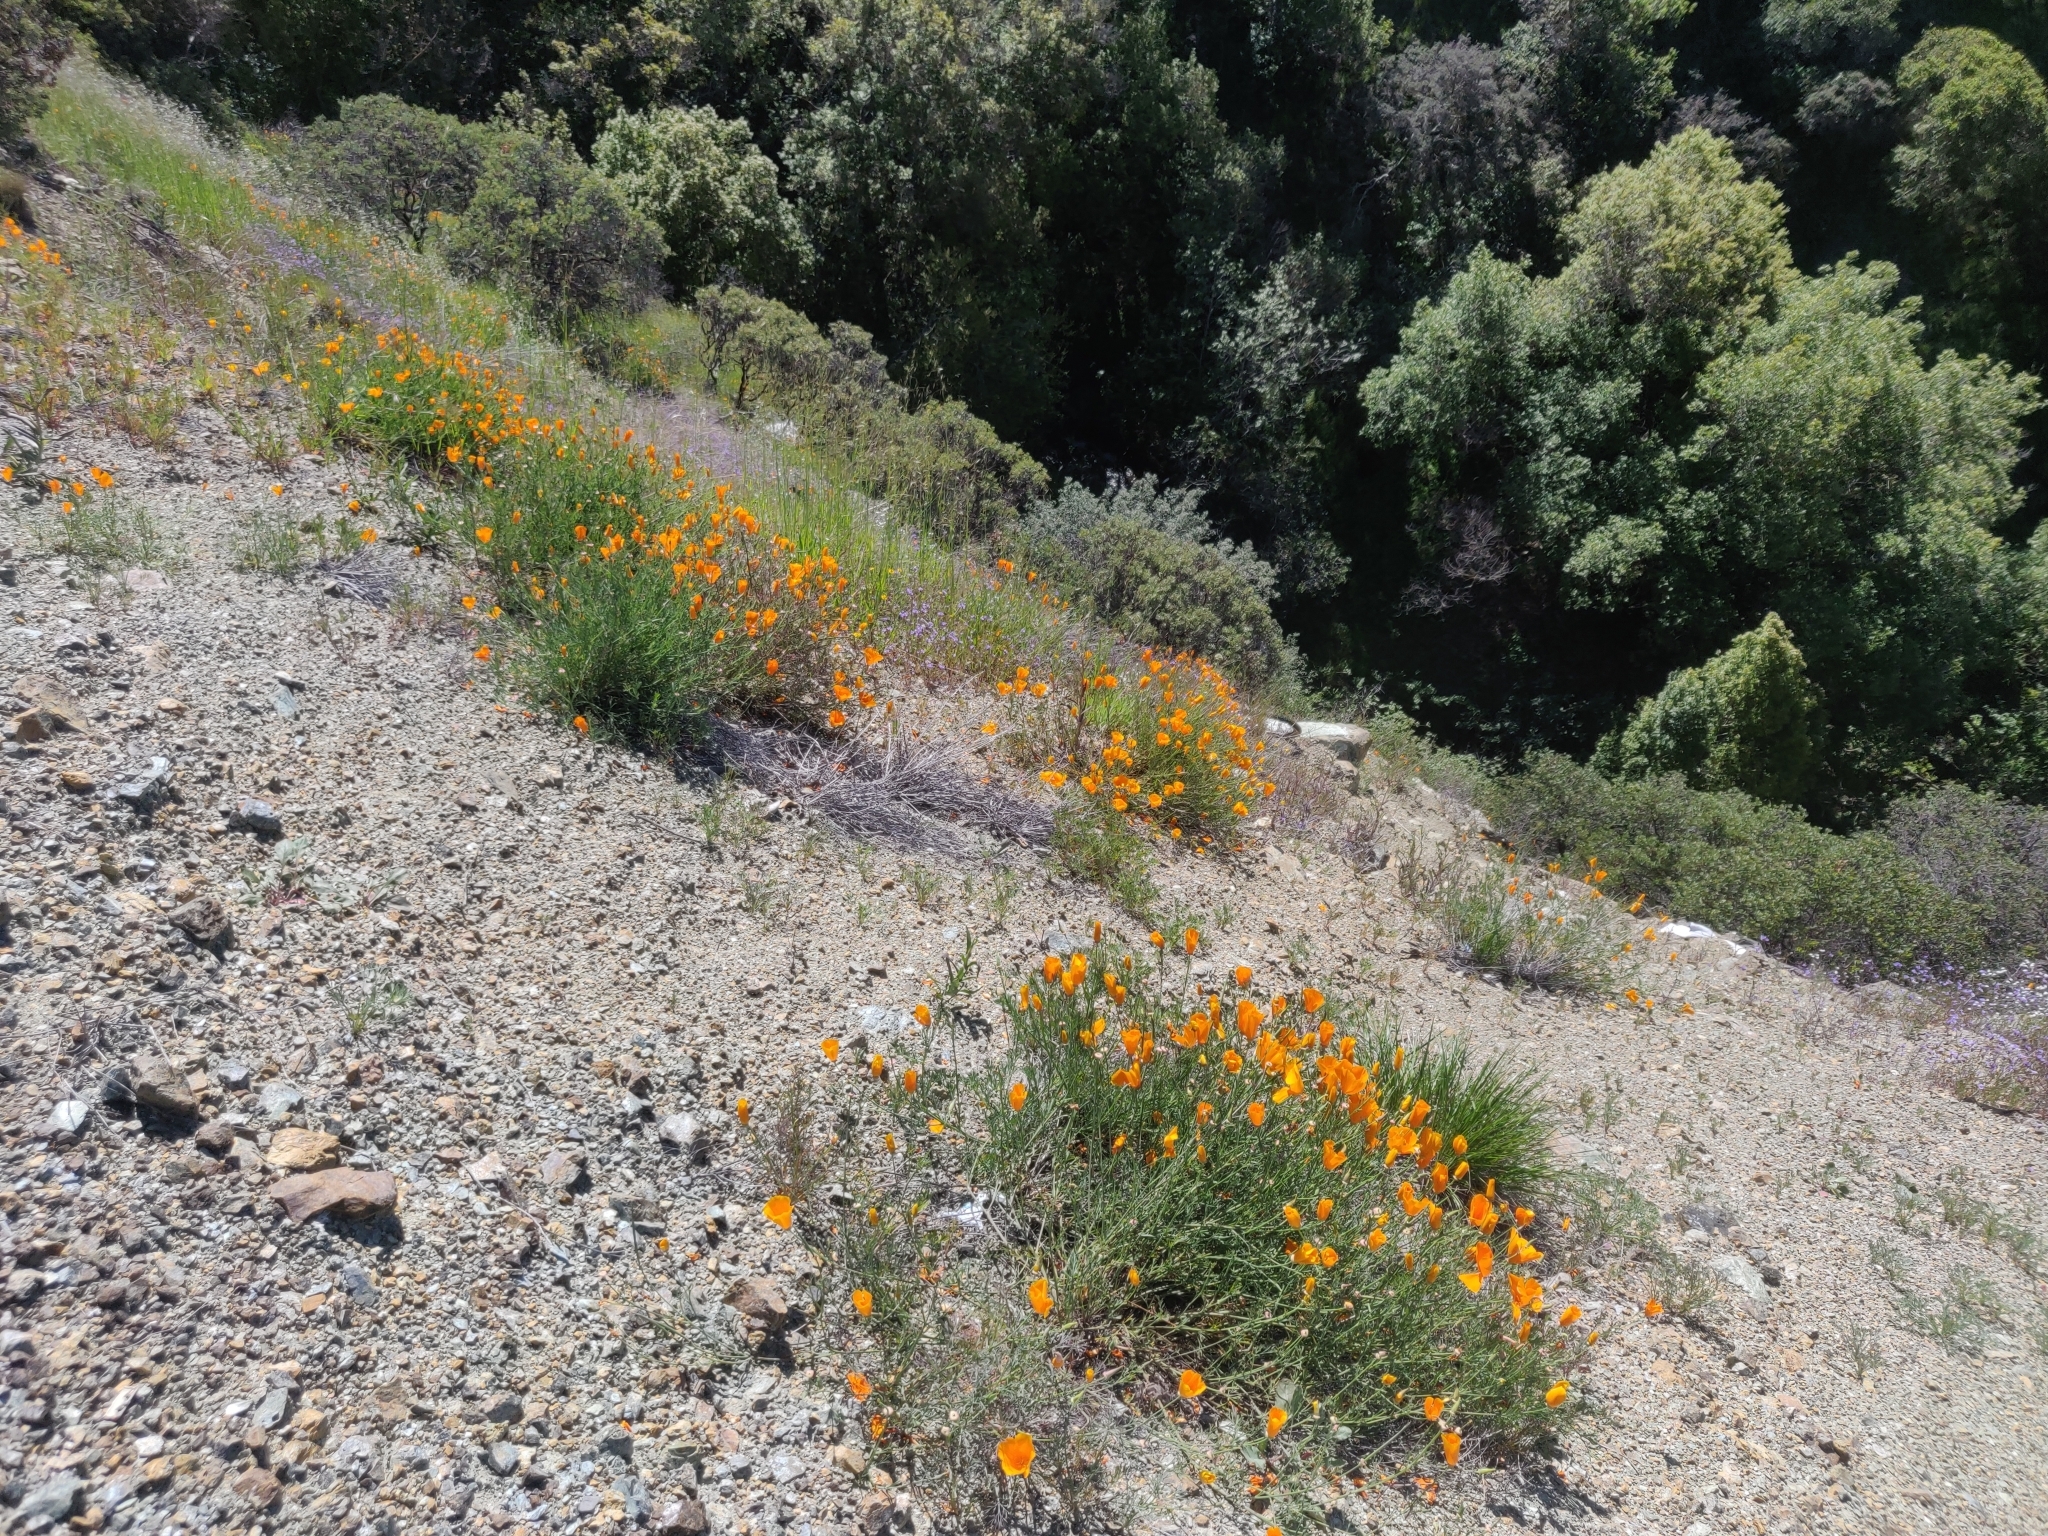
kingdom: Plantae
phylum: Tracheophyta
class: Magnoliopsida
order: Ranunculales
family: Papaveraceae
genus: Eschscholzia
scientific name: Eschscholzia californica
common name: California poppy
